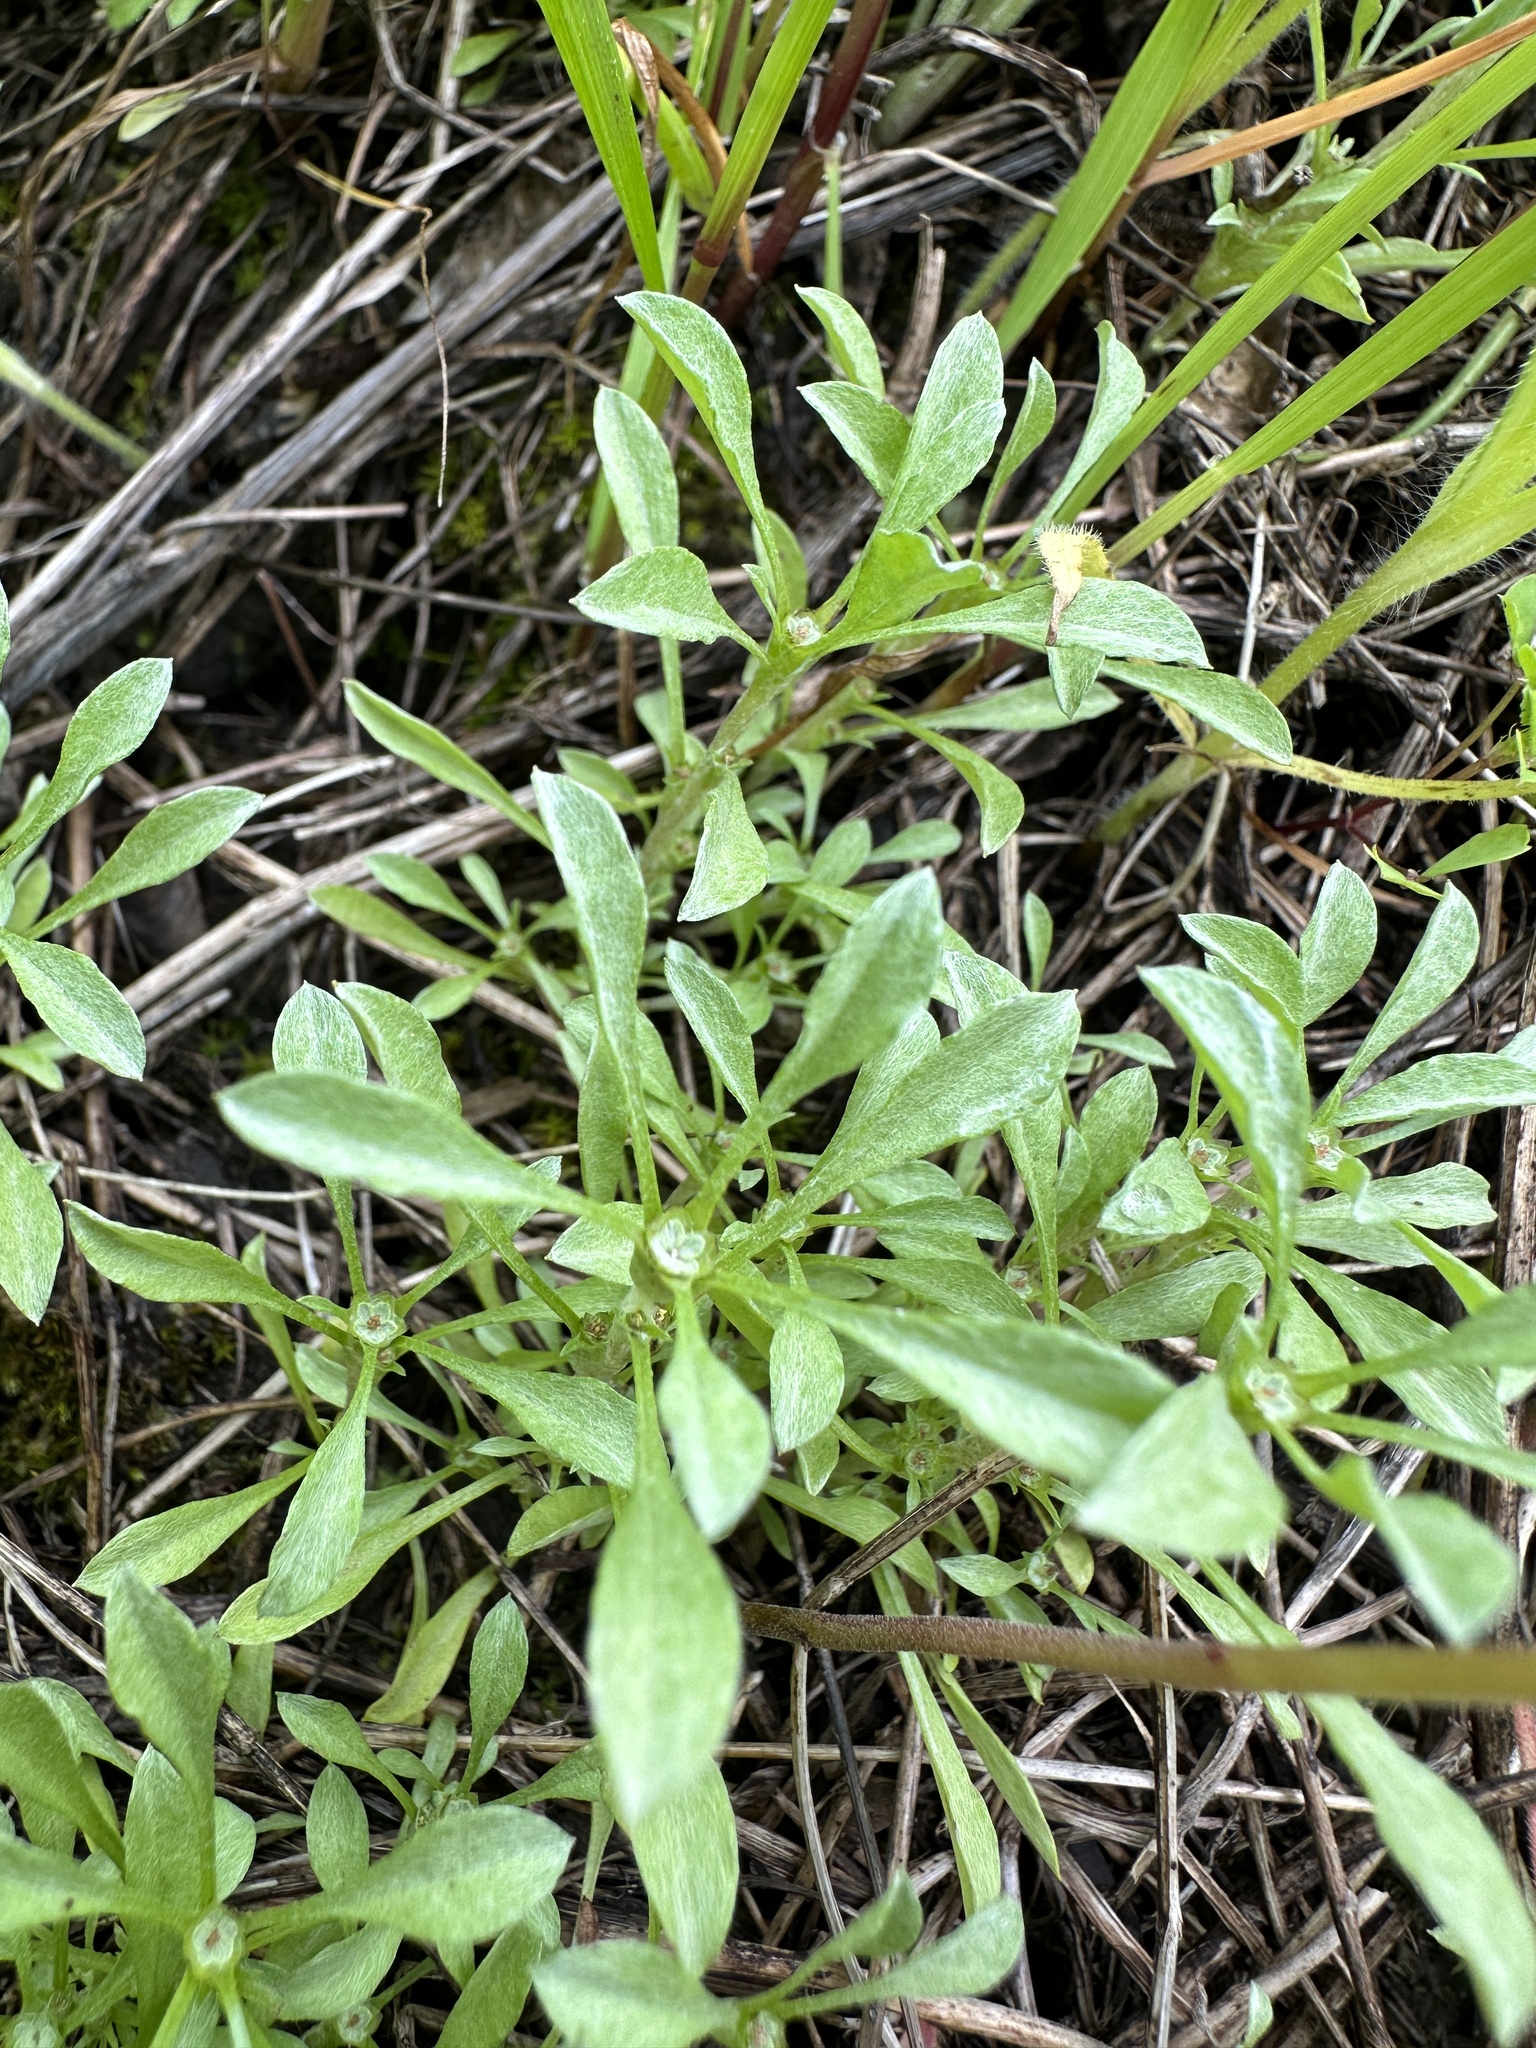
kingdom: Plantae
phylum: Tracheophyta
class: Magnoliopsida
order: Asterales
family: Asteraceae
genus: Hesperevax
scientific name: Hesperevax sparsiflora
